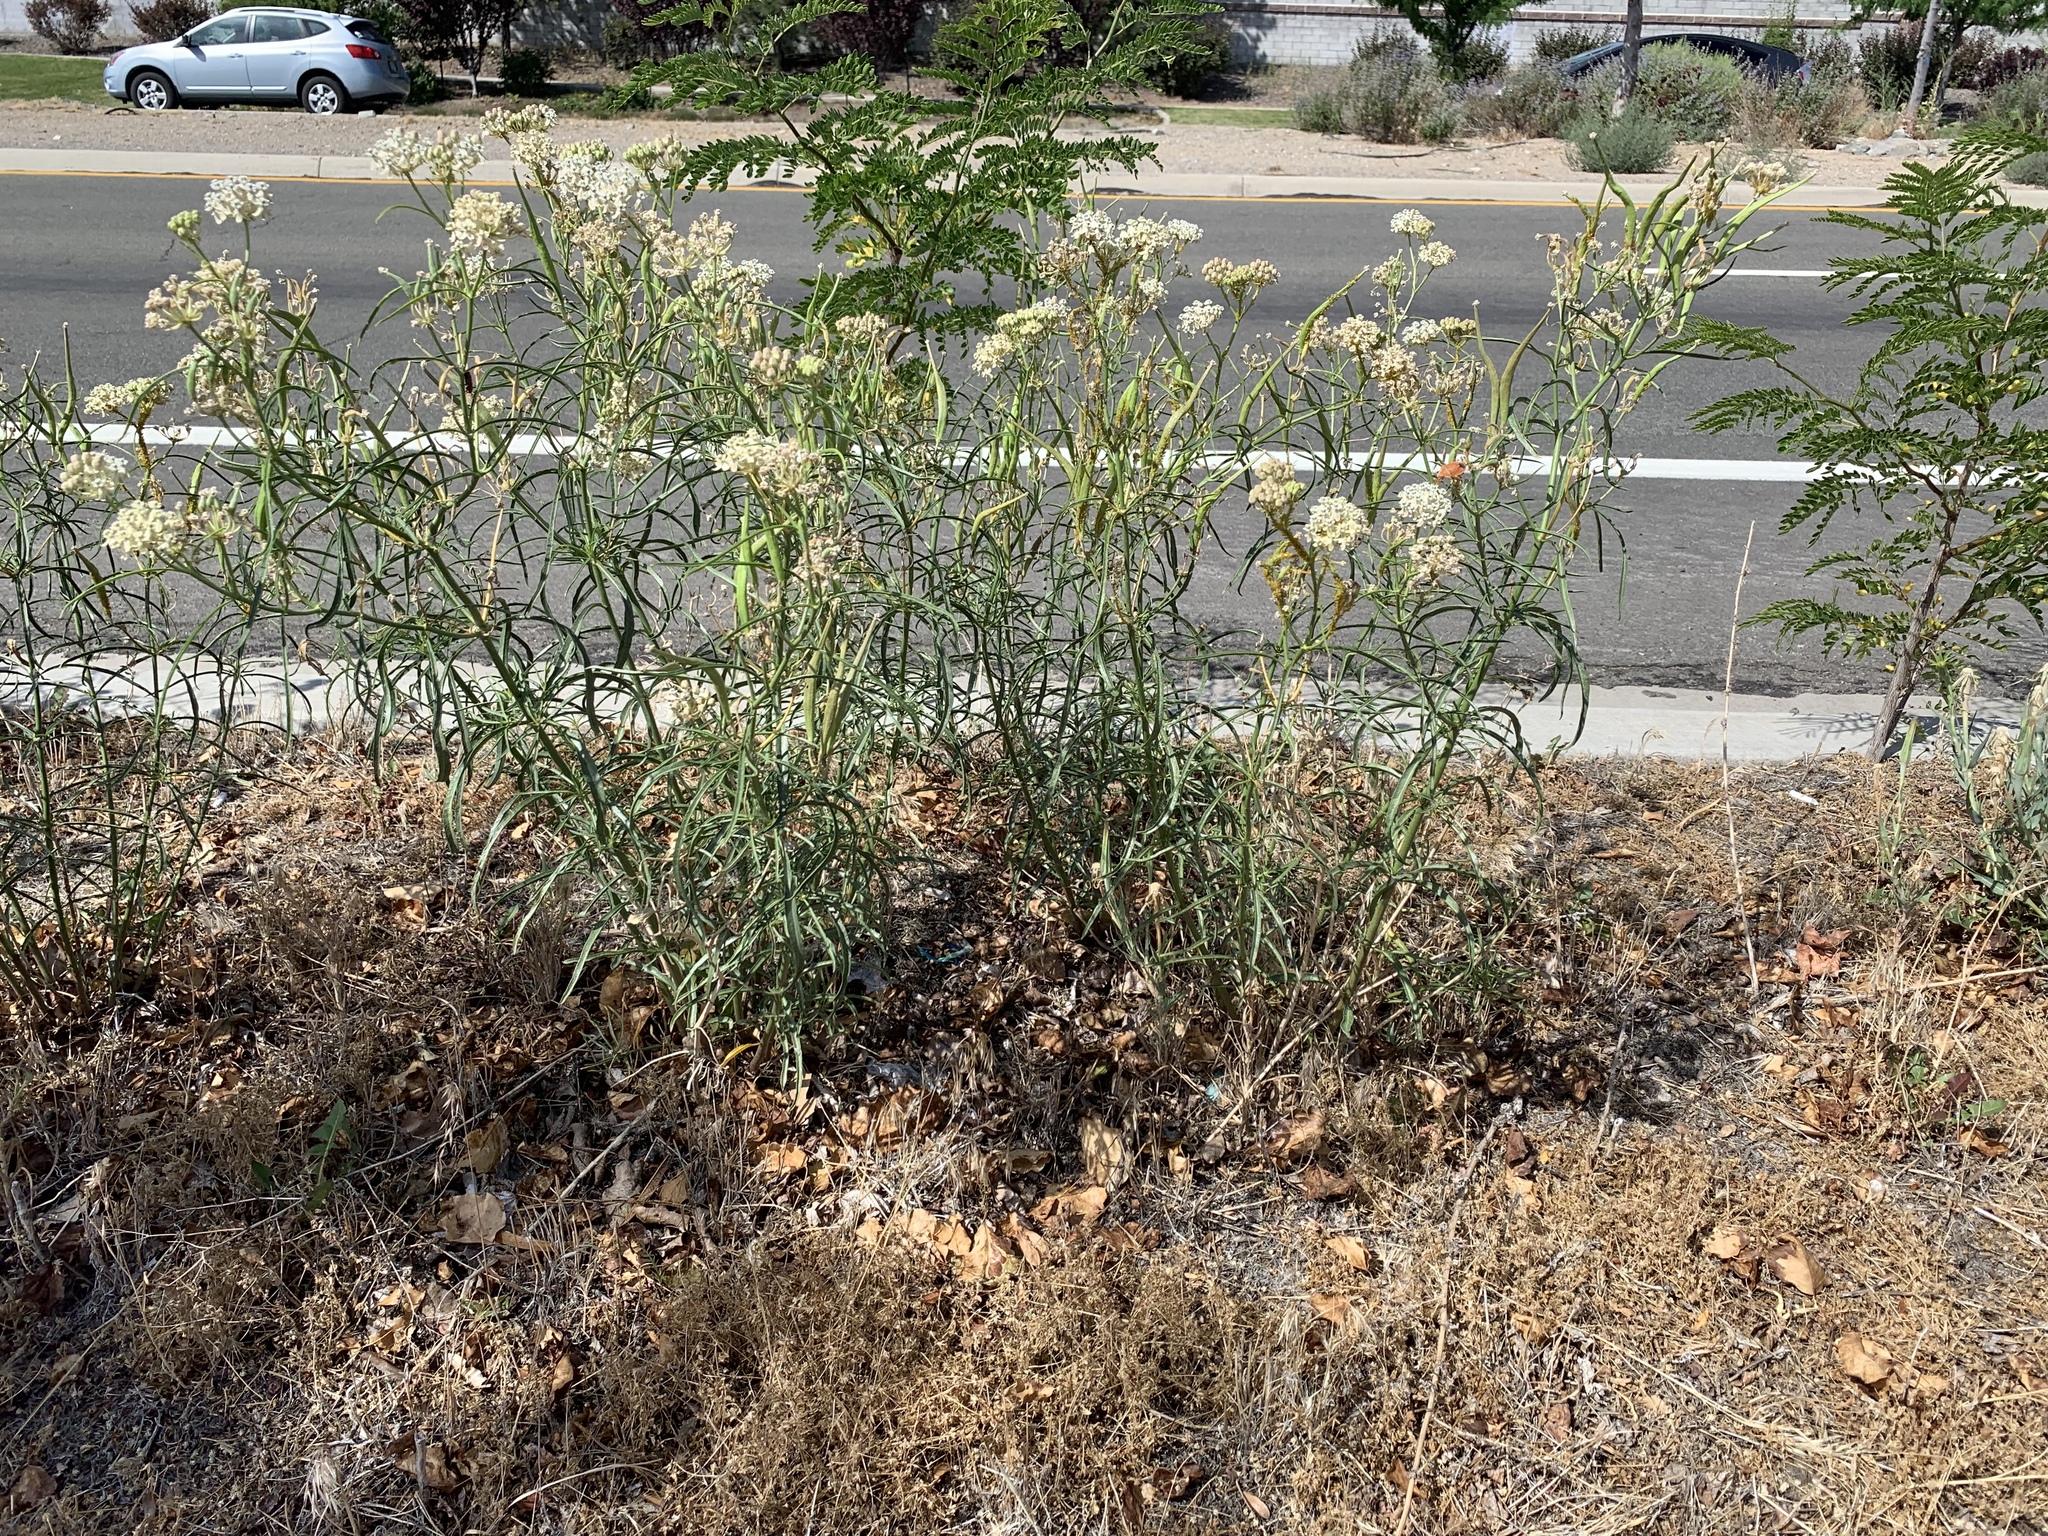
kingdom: Plantae
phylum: Tracheophyta
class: Magnoliopsida
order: Gentianales
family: Apocynaceae
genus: Asclepias
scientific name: Asclepias fascicularis
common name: Mexican milkweed
